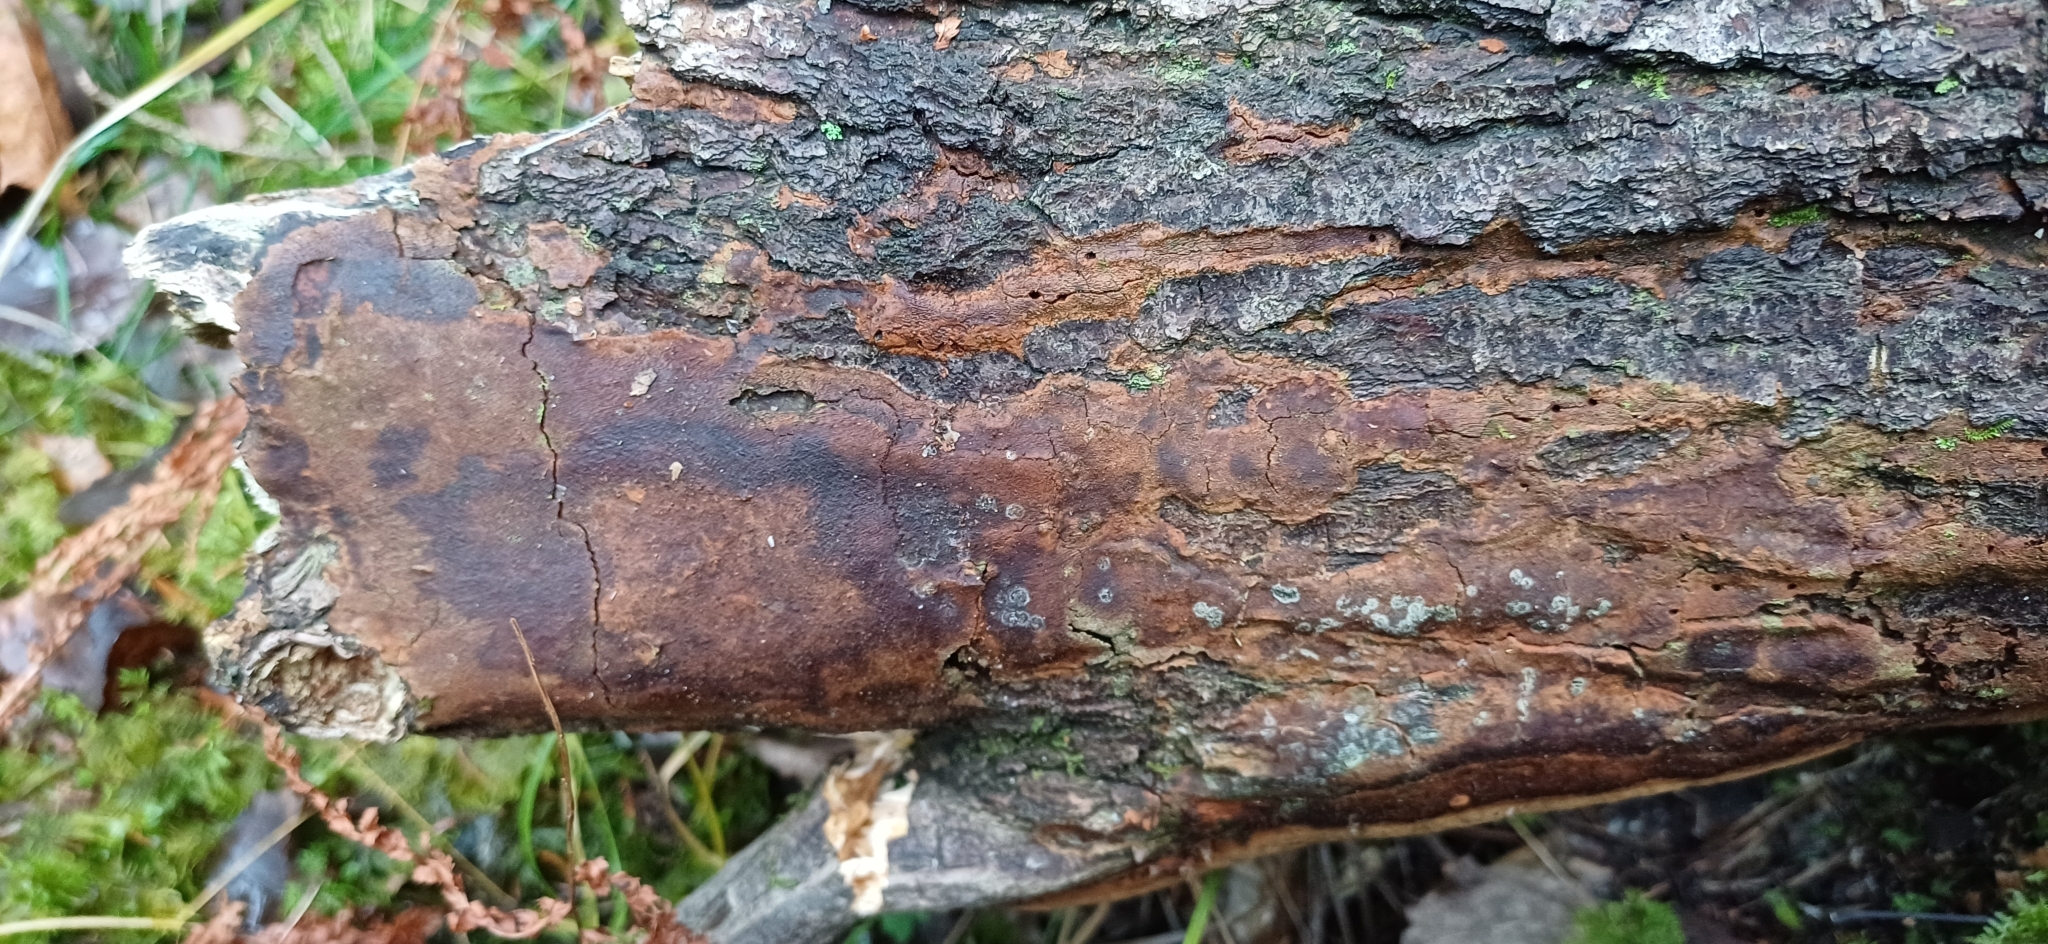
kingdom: Fungi
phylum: Basidiomycota
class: Agaricomycetes
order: Hymenochaetales
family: Hymenochaetaceae
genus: Fomitiporia
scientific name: Fomitiporia punctata
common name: Elbowpatch crust
